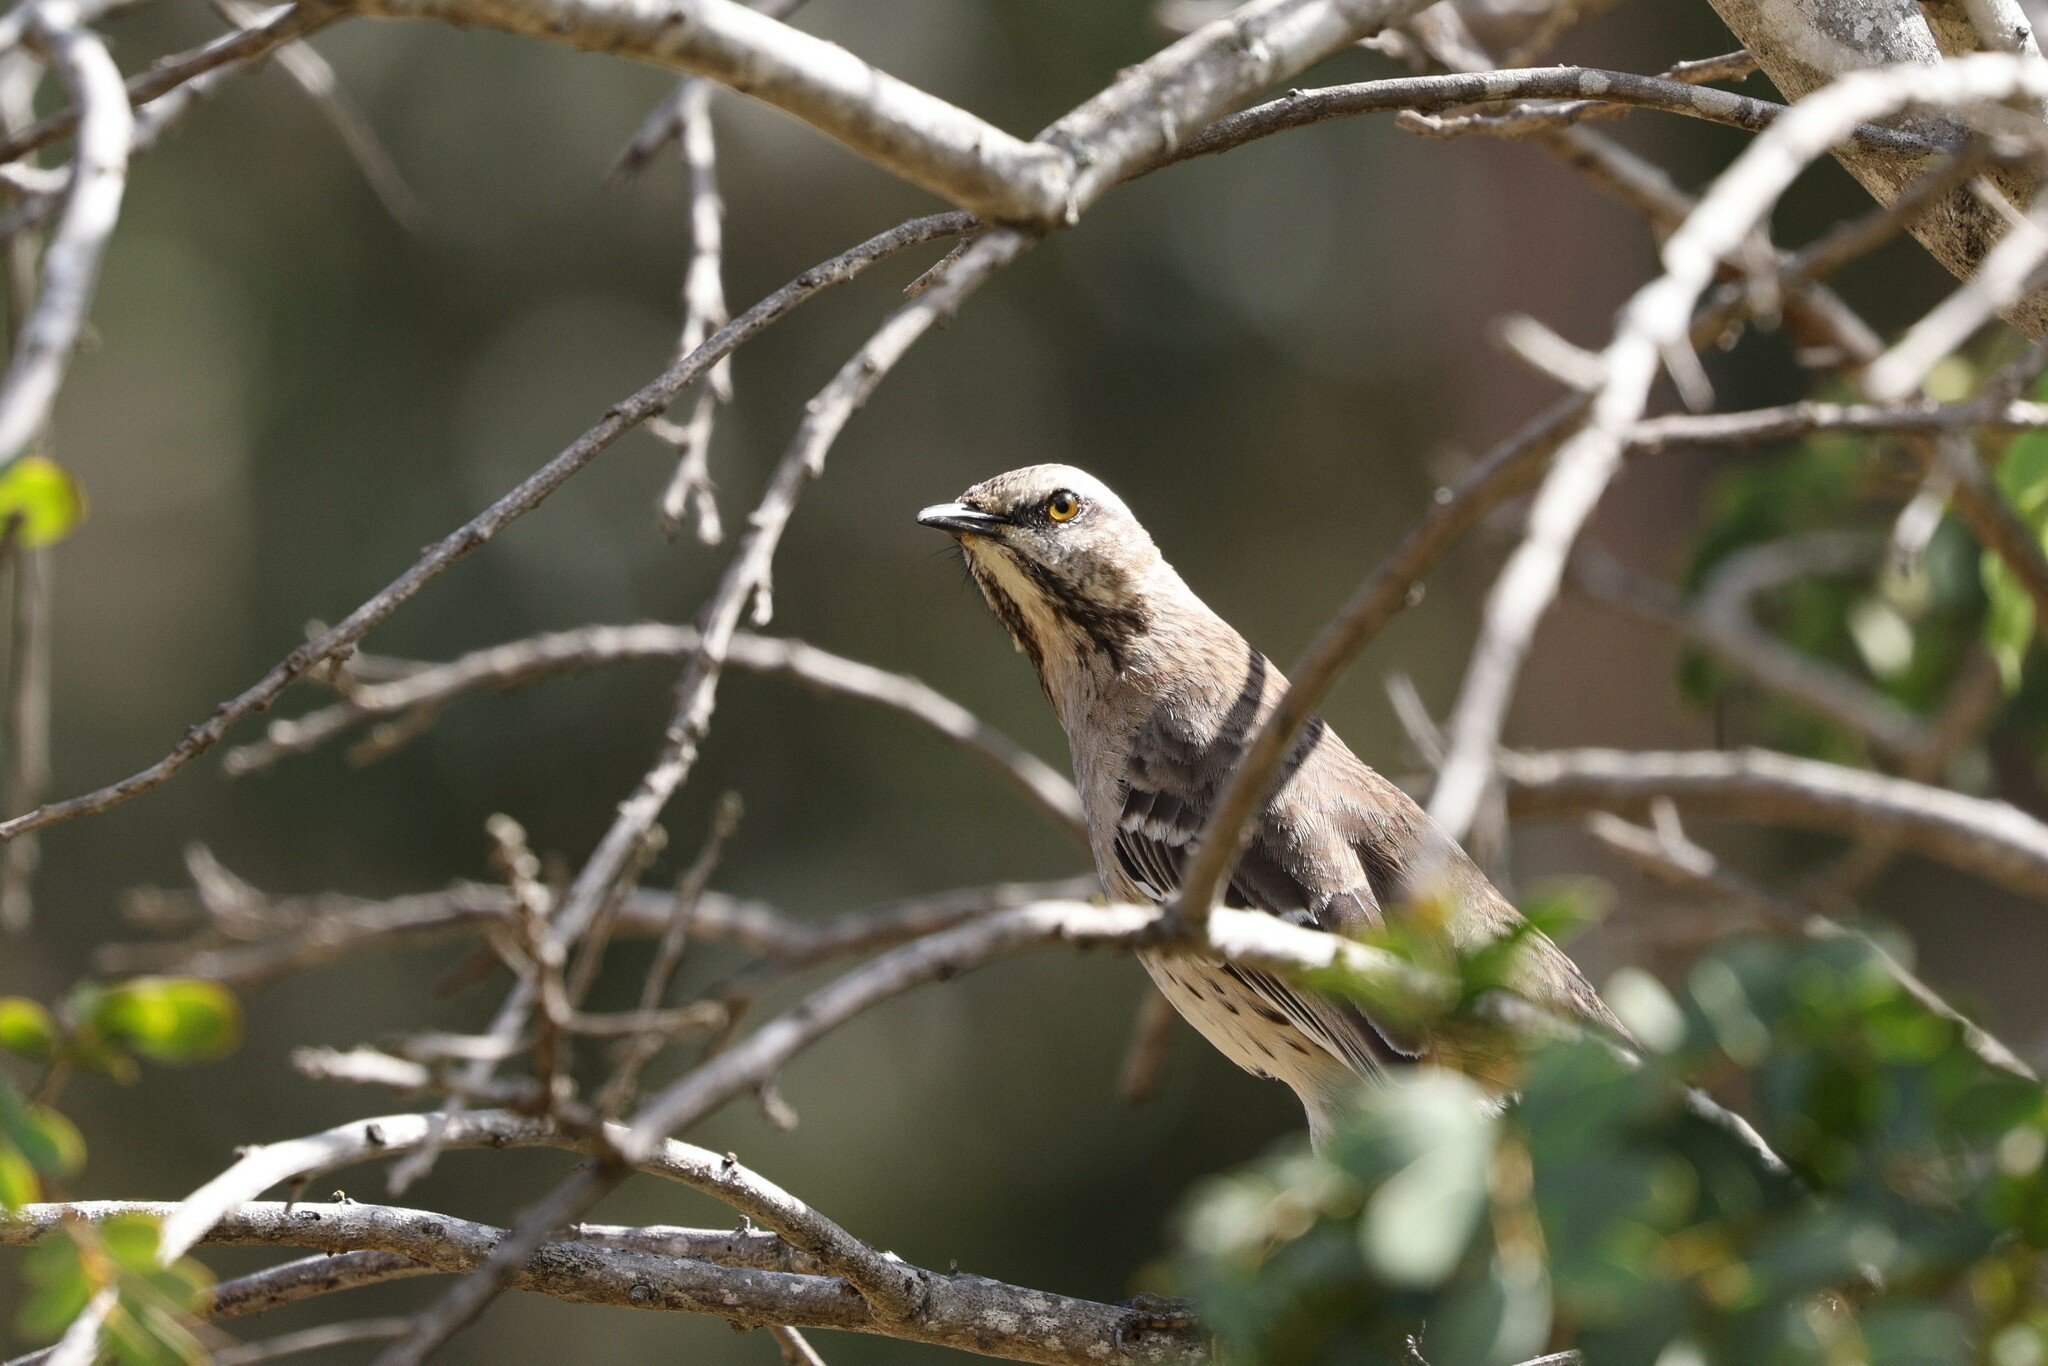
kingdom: Animalia
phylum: Chordata
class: Aves
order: Passeriformes
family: Mimidae
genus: Mimus
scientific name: Mimus thenca
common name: Chilean mockingbird
